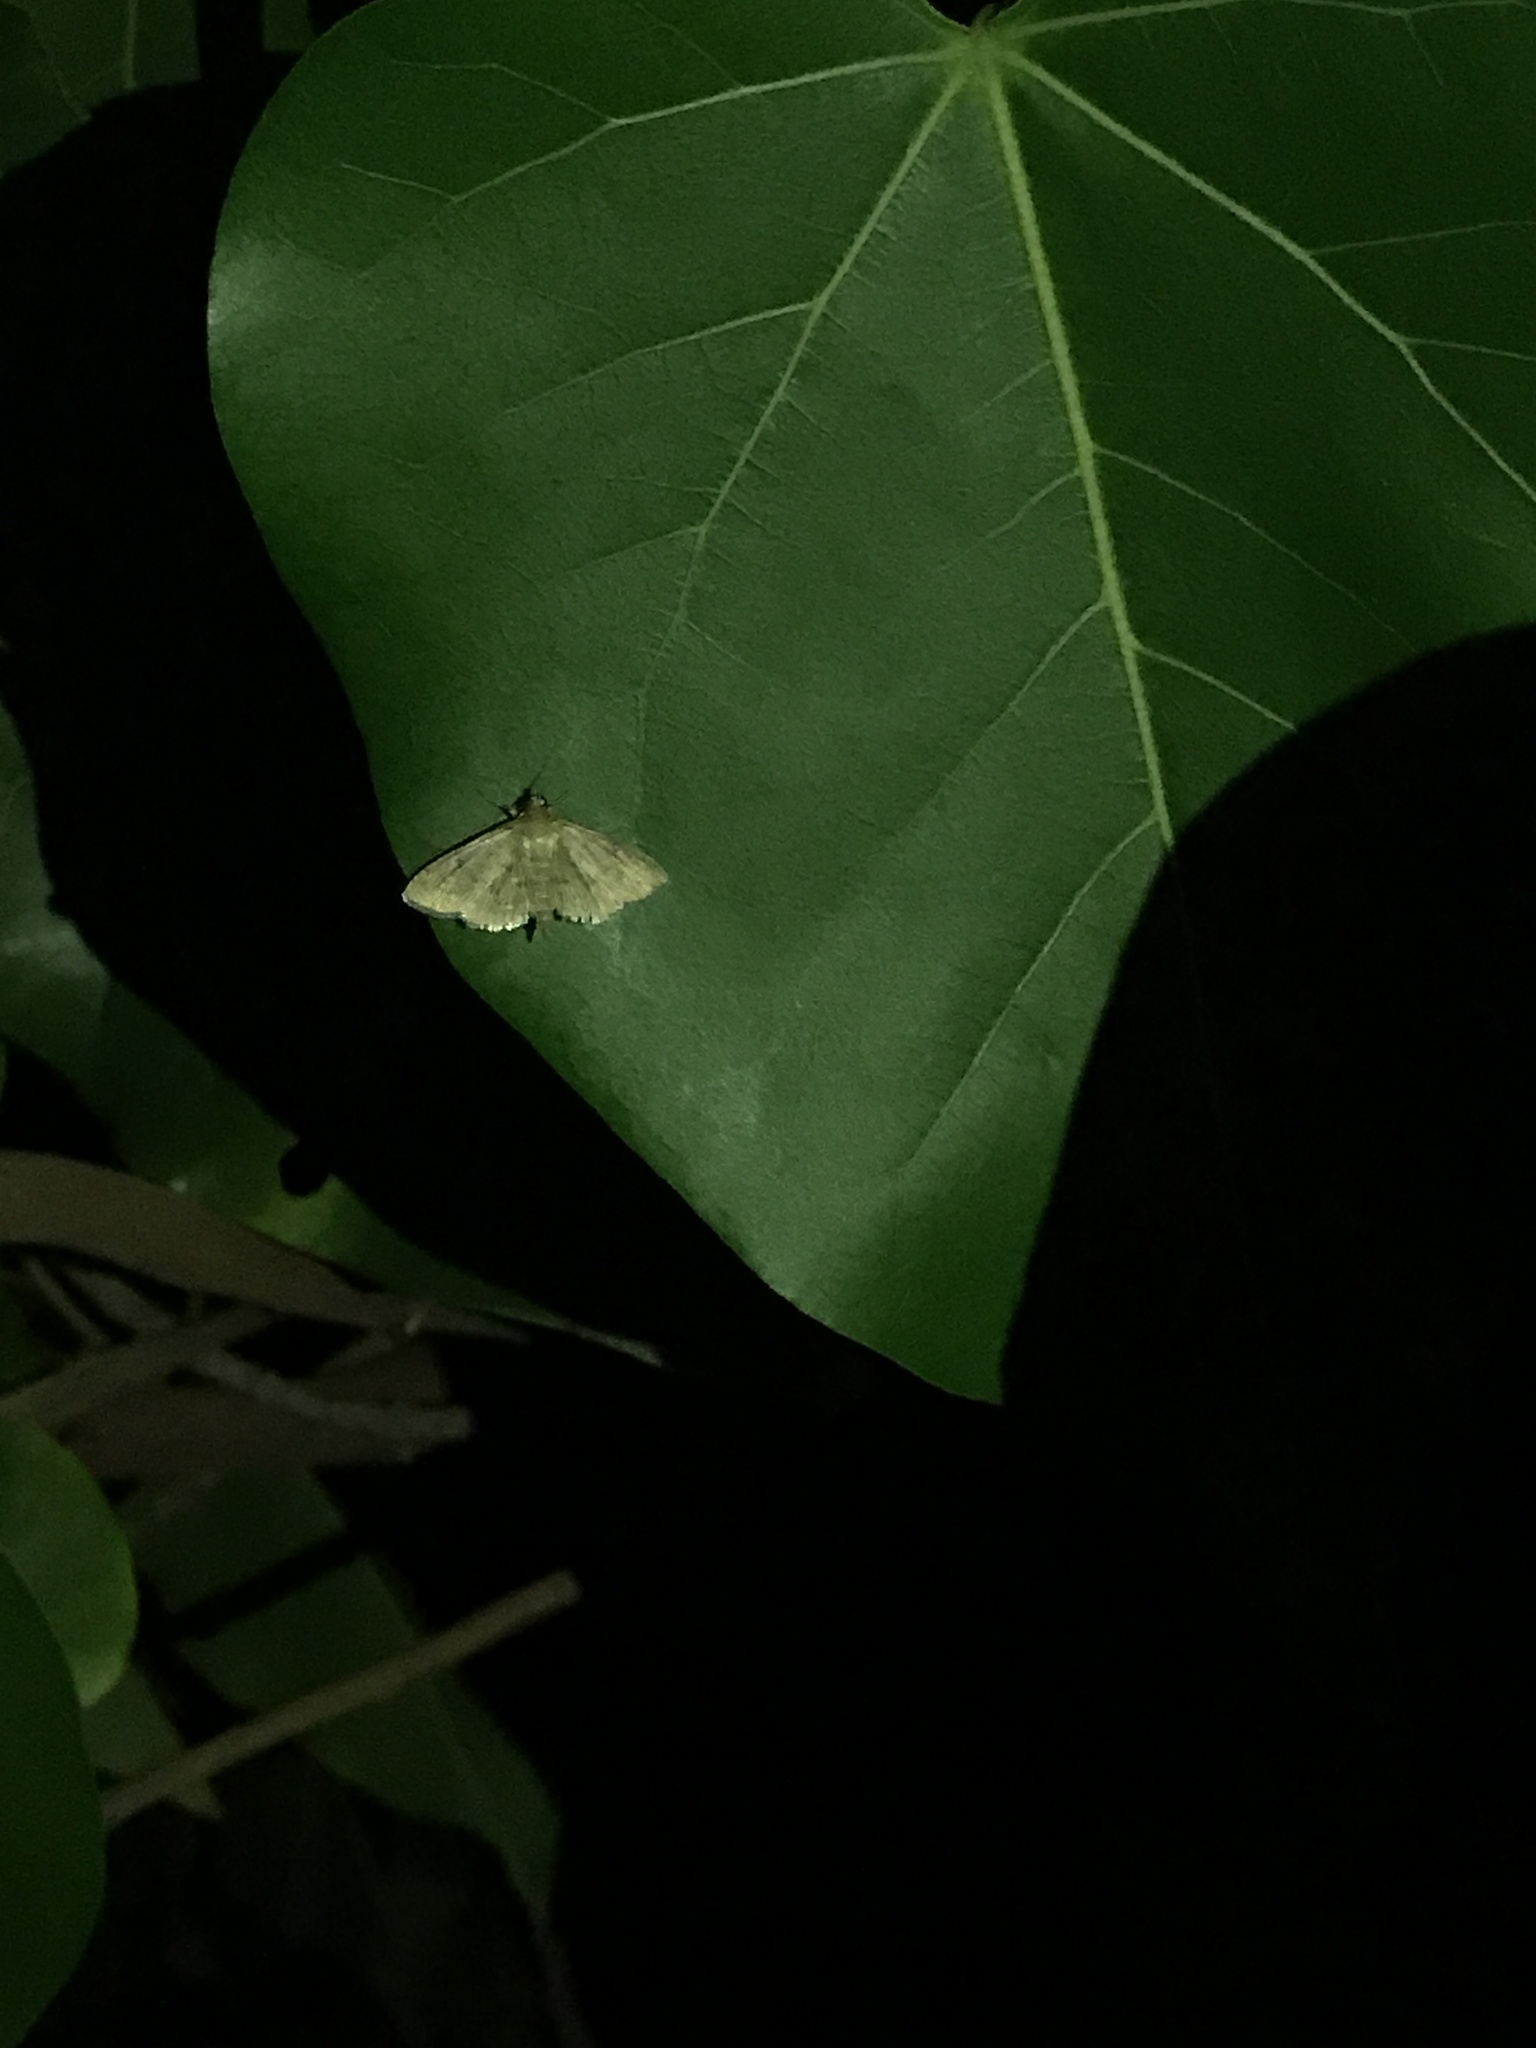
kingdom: Animalia
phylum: Arthropoda
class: Insecta
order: Lepidoptera
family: Crambidae
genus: Herpetogramma
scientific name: Herpetogramma licarsisalis
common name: Grass webworm
